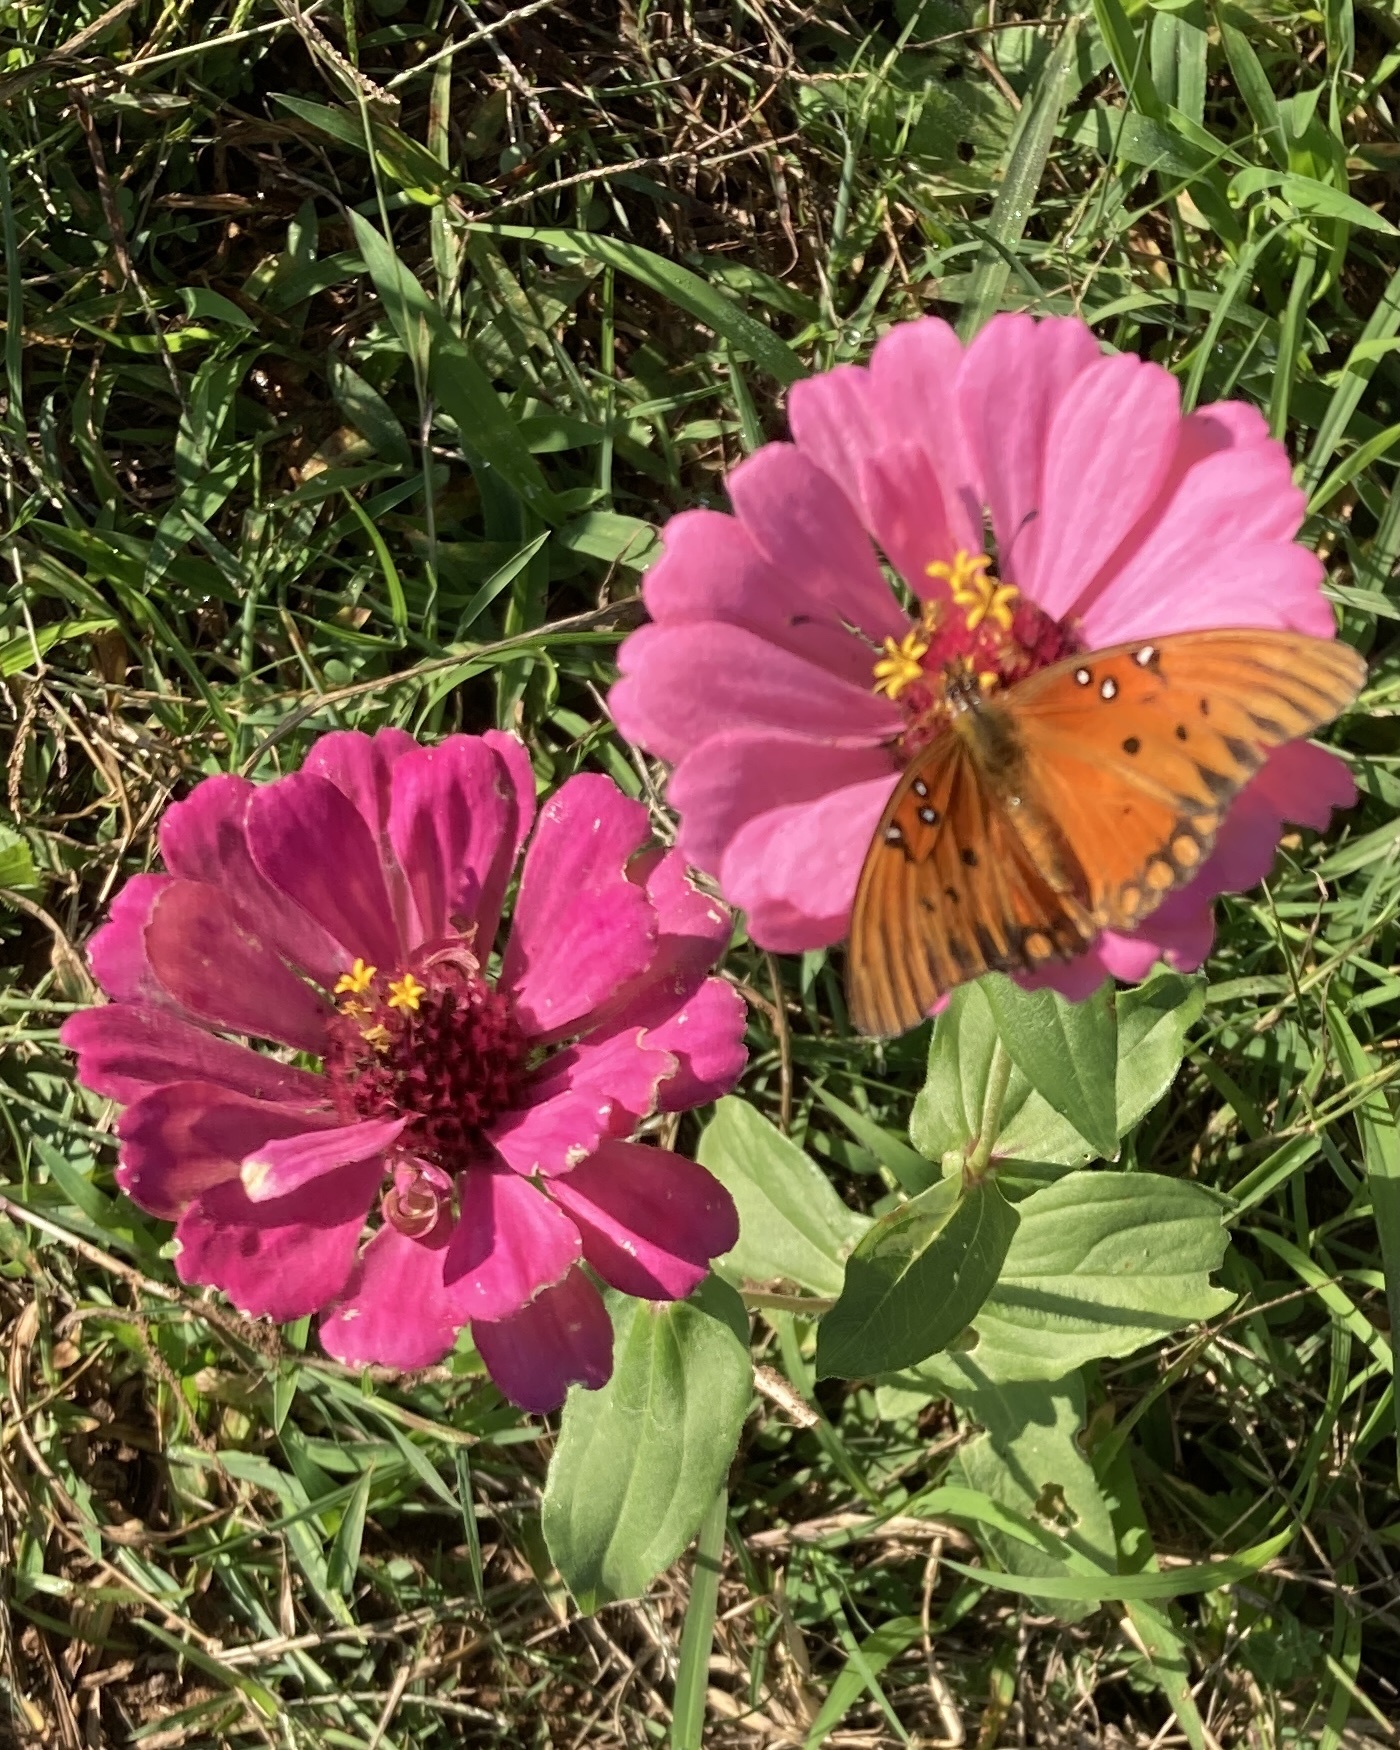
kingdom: Animalia
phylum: Arthropoda
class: Insecta
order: Lepidoptera
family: Nymphalidae
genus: Dione
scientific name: Dione vanillae
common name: Gulf fritillary
